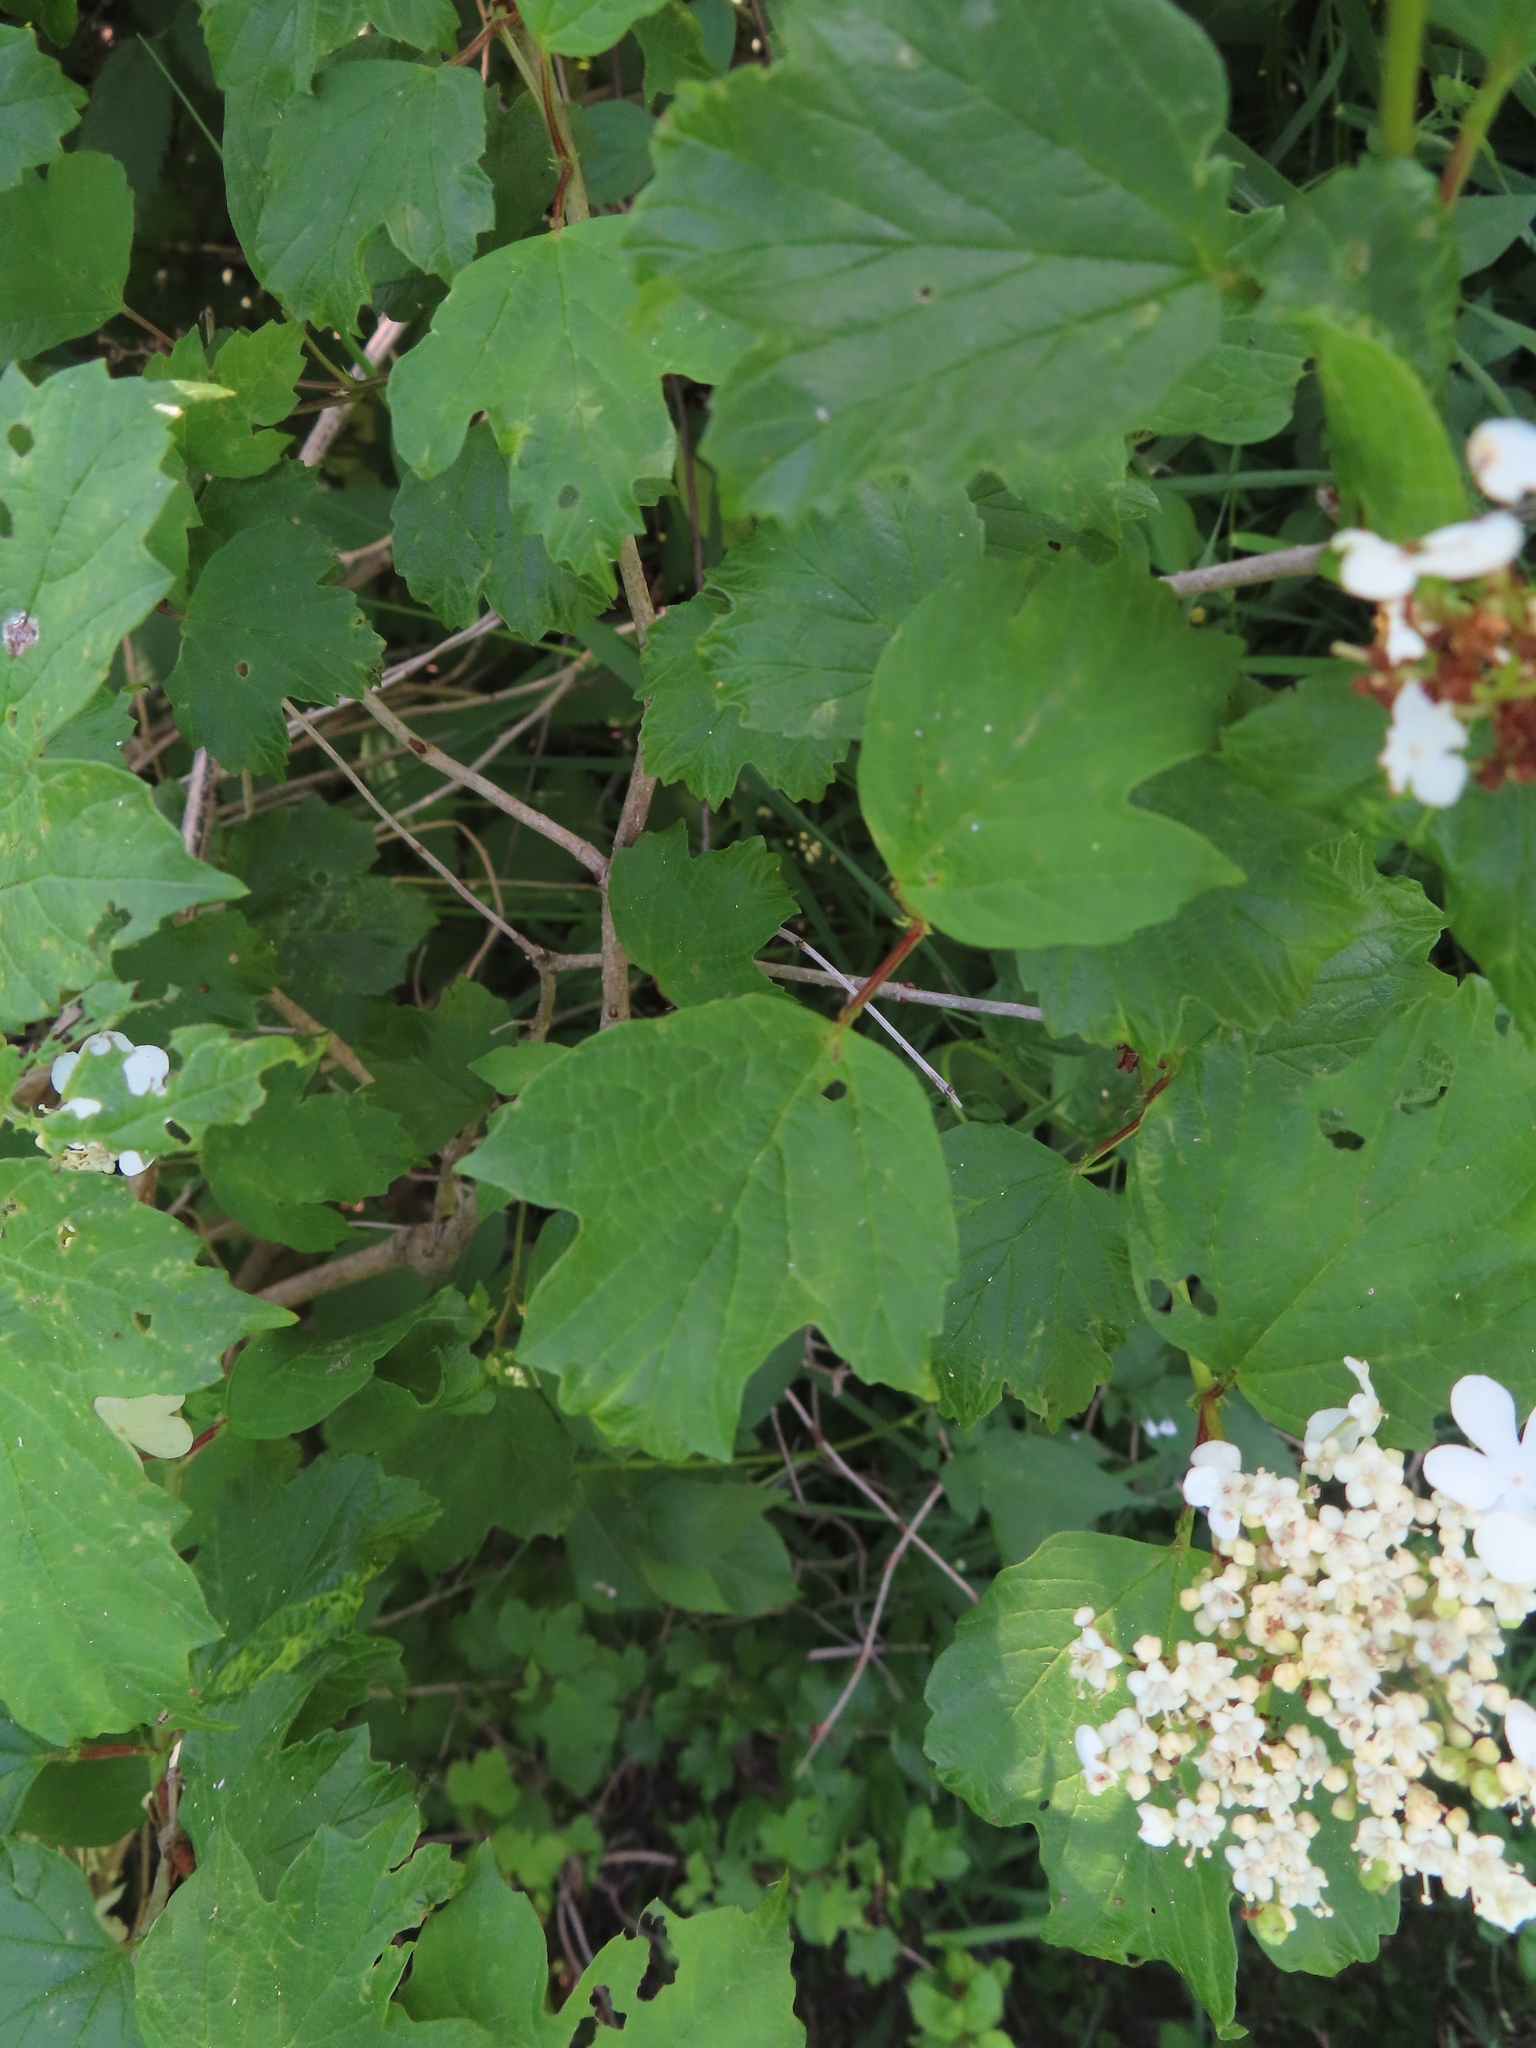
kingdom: Plantae
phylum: Tracheophyta
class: Magnoliopsida
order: Dipsacales
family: Viburnaceae
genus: Viburnum
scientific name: Viburnum opulus
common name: Guelder-rose
